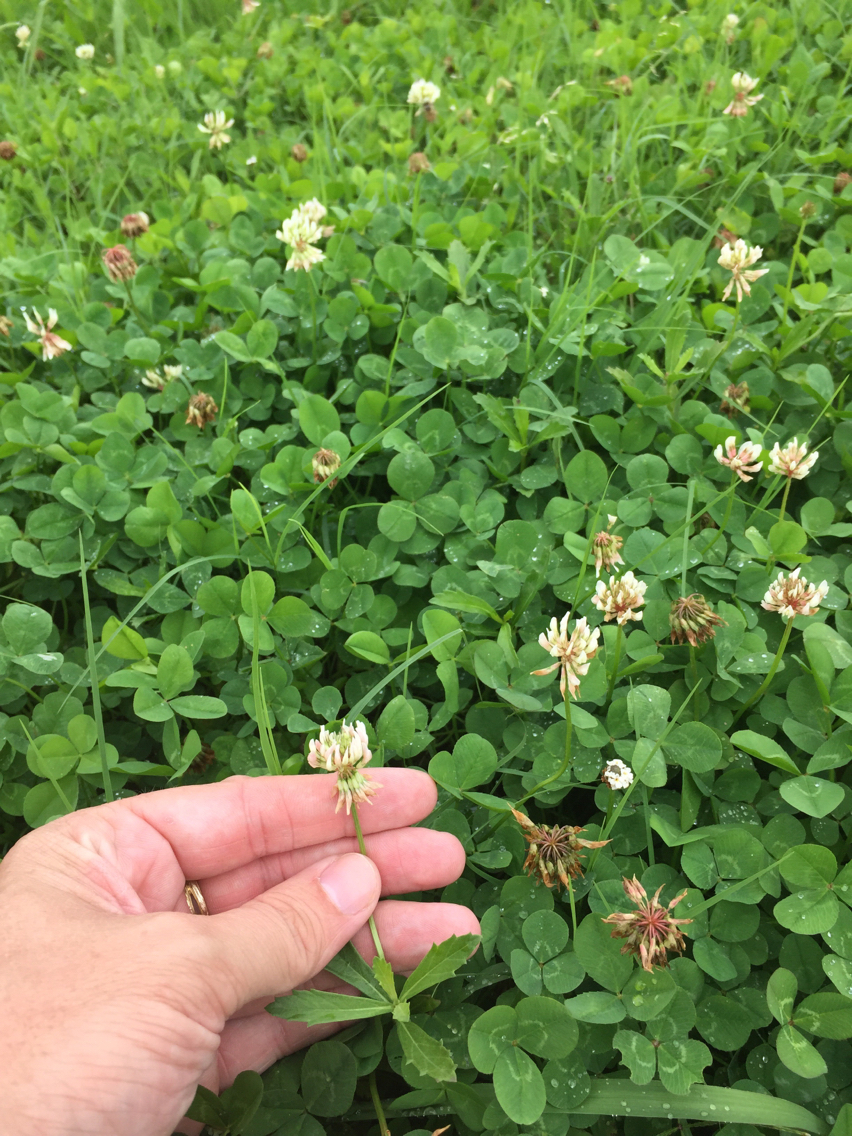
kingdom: Plantae
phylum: Tracheophyta
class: Magnoliopsida
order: Fabales
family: Fabaceae
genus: Trifolium
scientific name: Trifolium repens
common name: White clover
